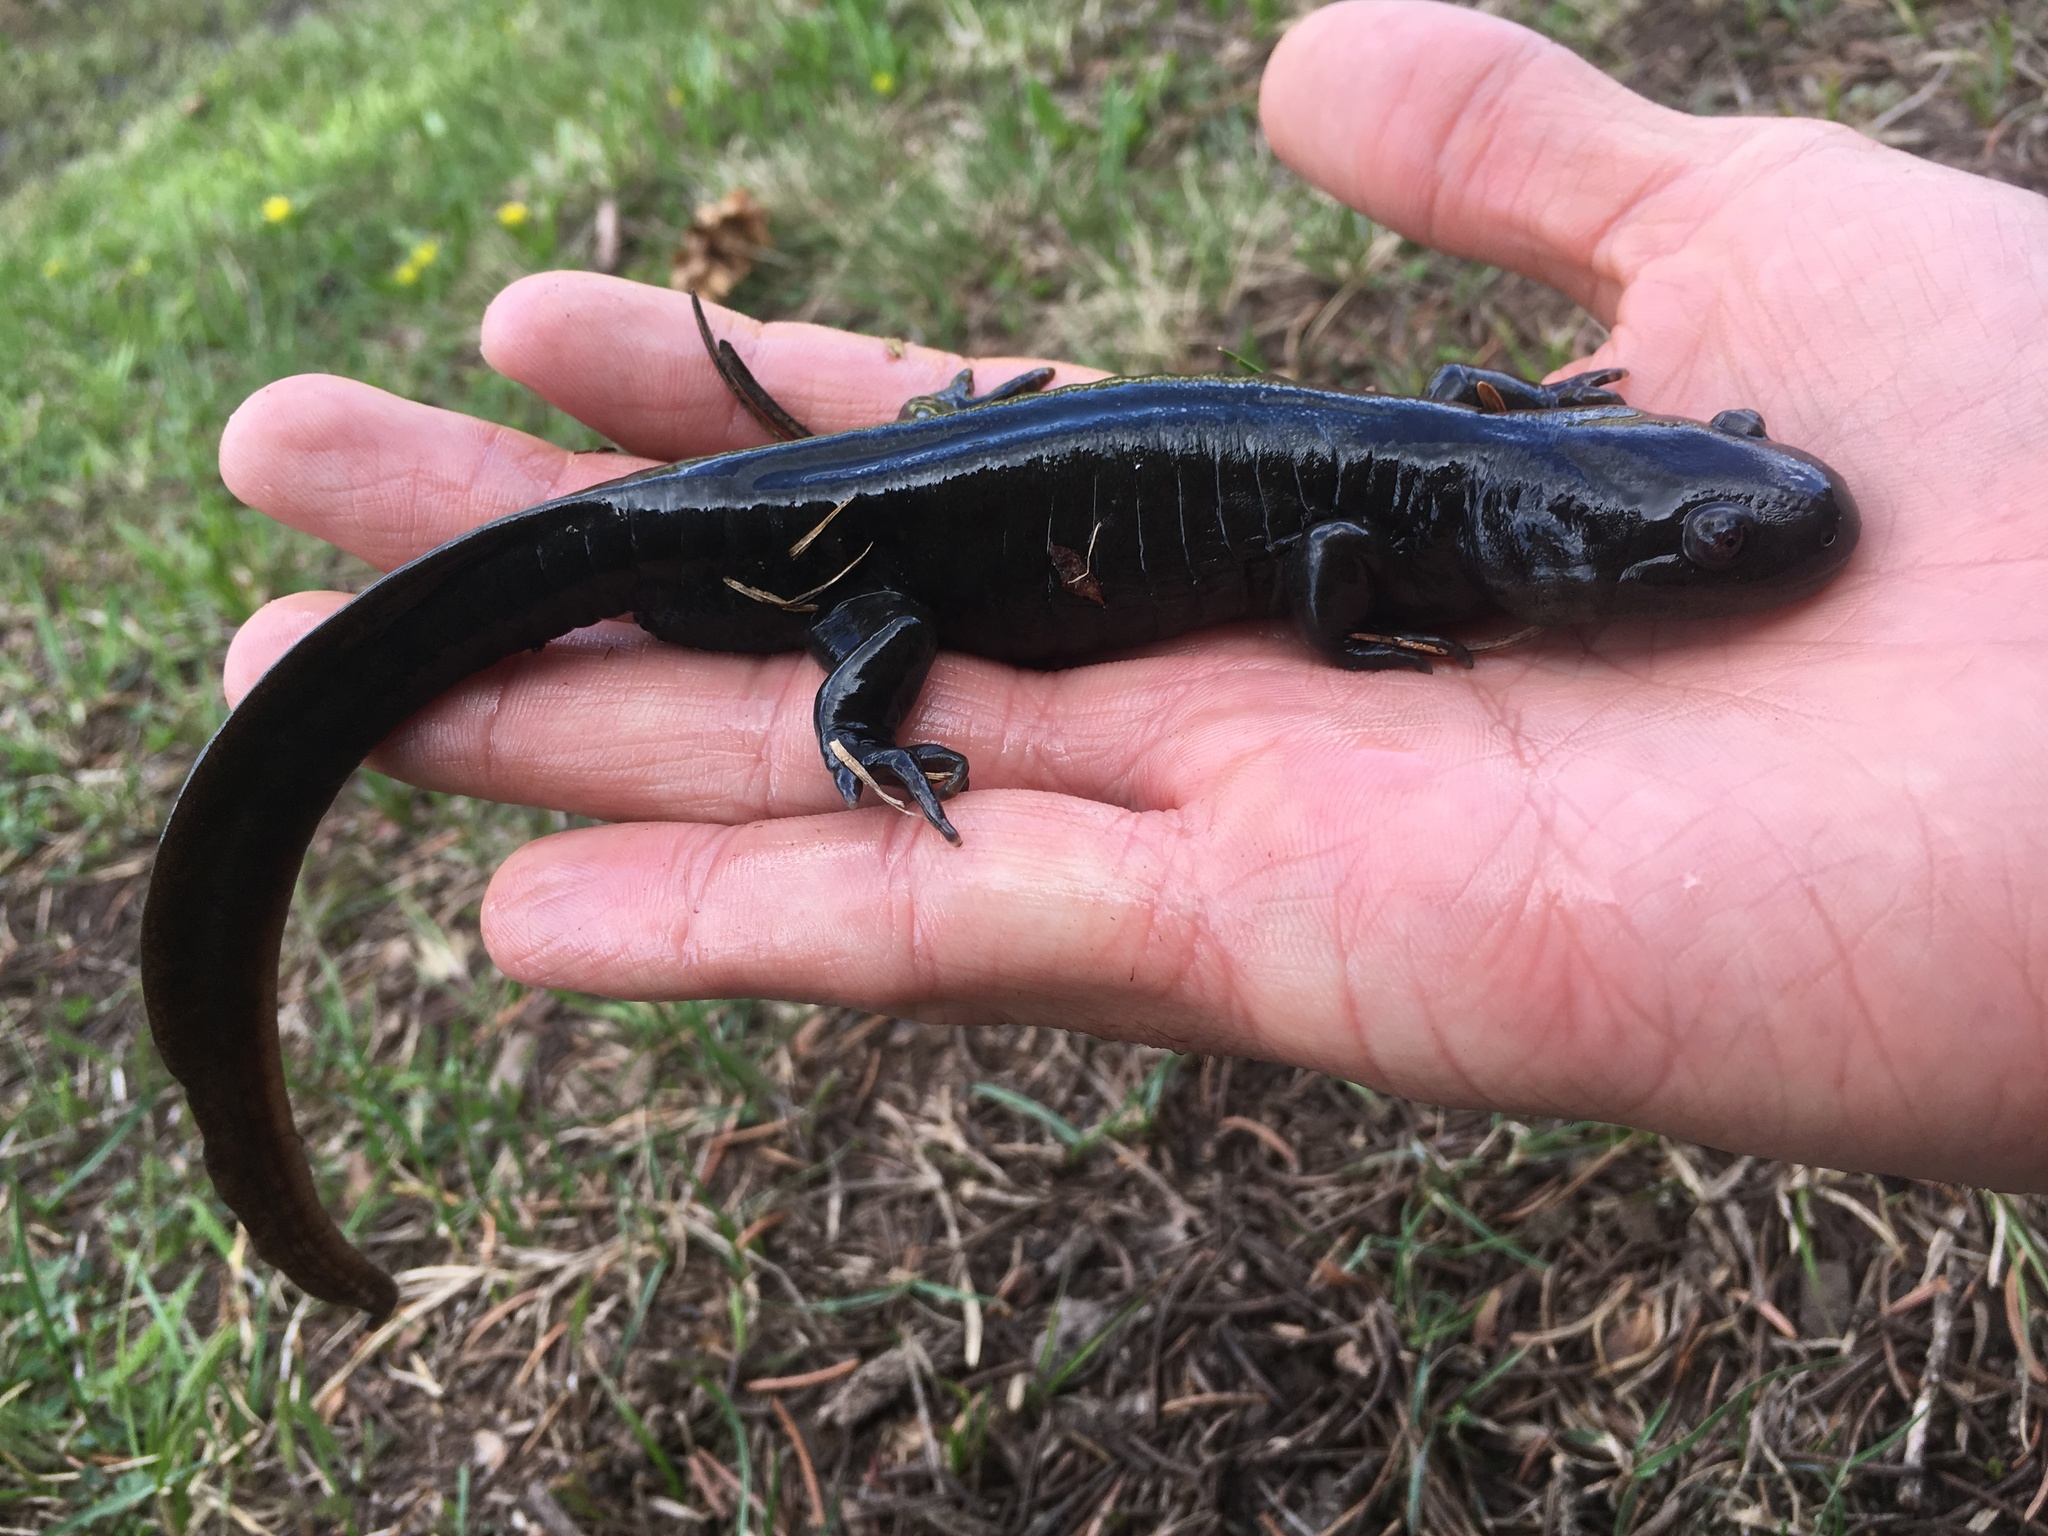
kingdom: Animalia
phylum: Chordata
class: Amphibia
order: Caudata
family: Ambystomatidae
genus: Ambystoma
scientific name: Ambystoma mavortium
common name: Western tiger salamander
